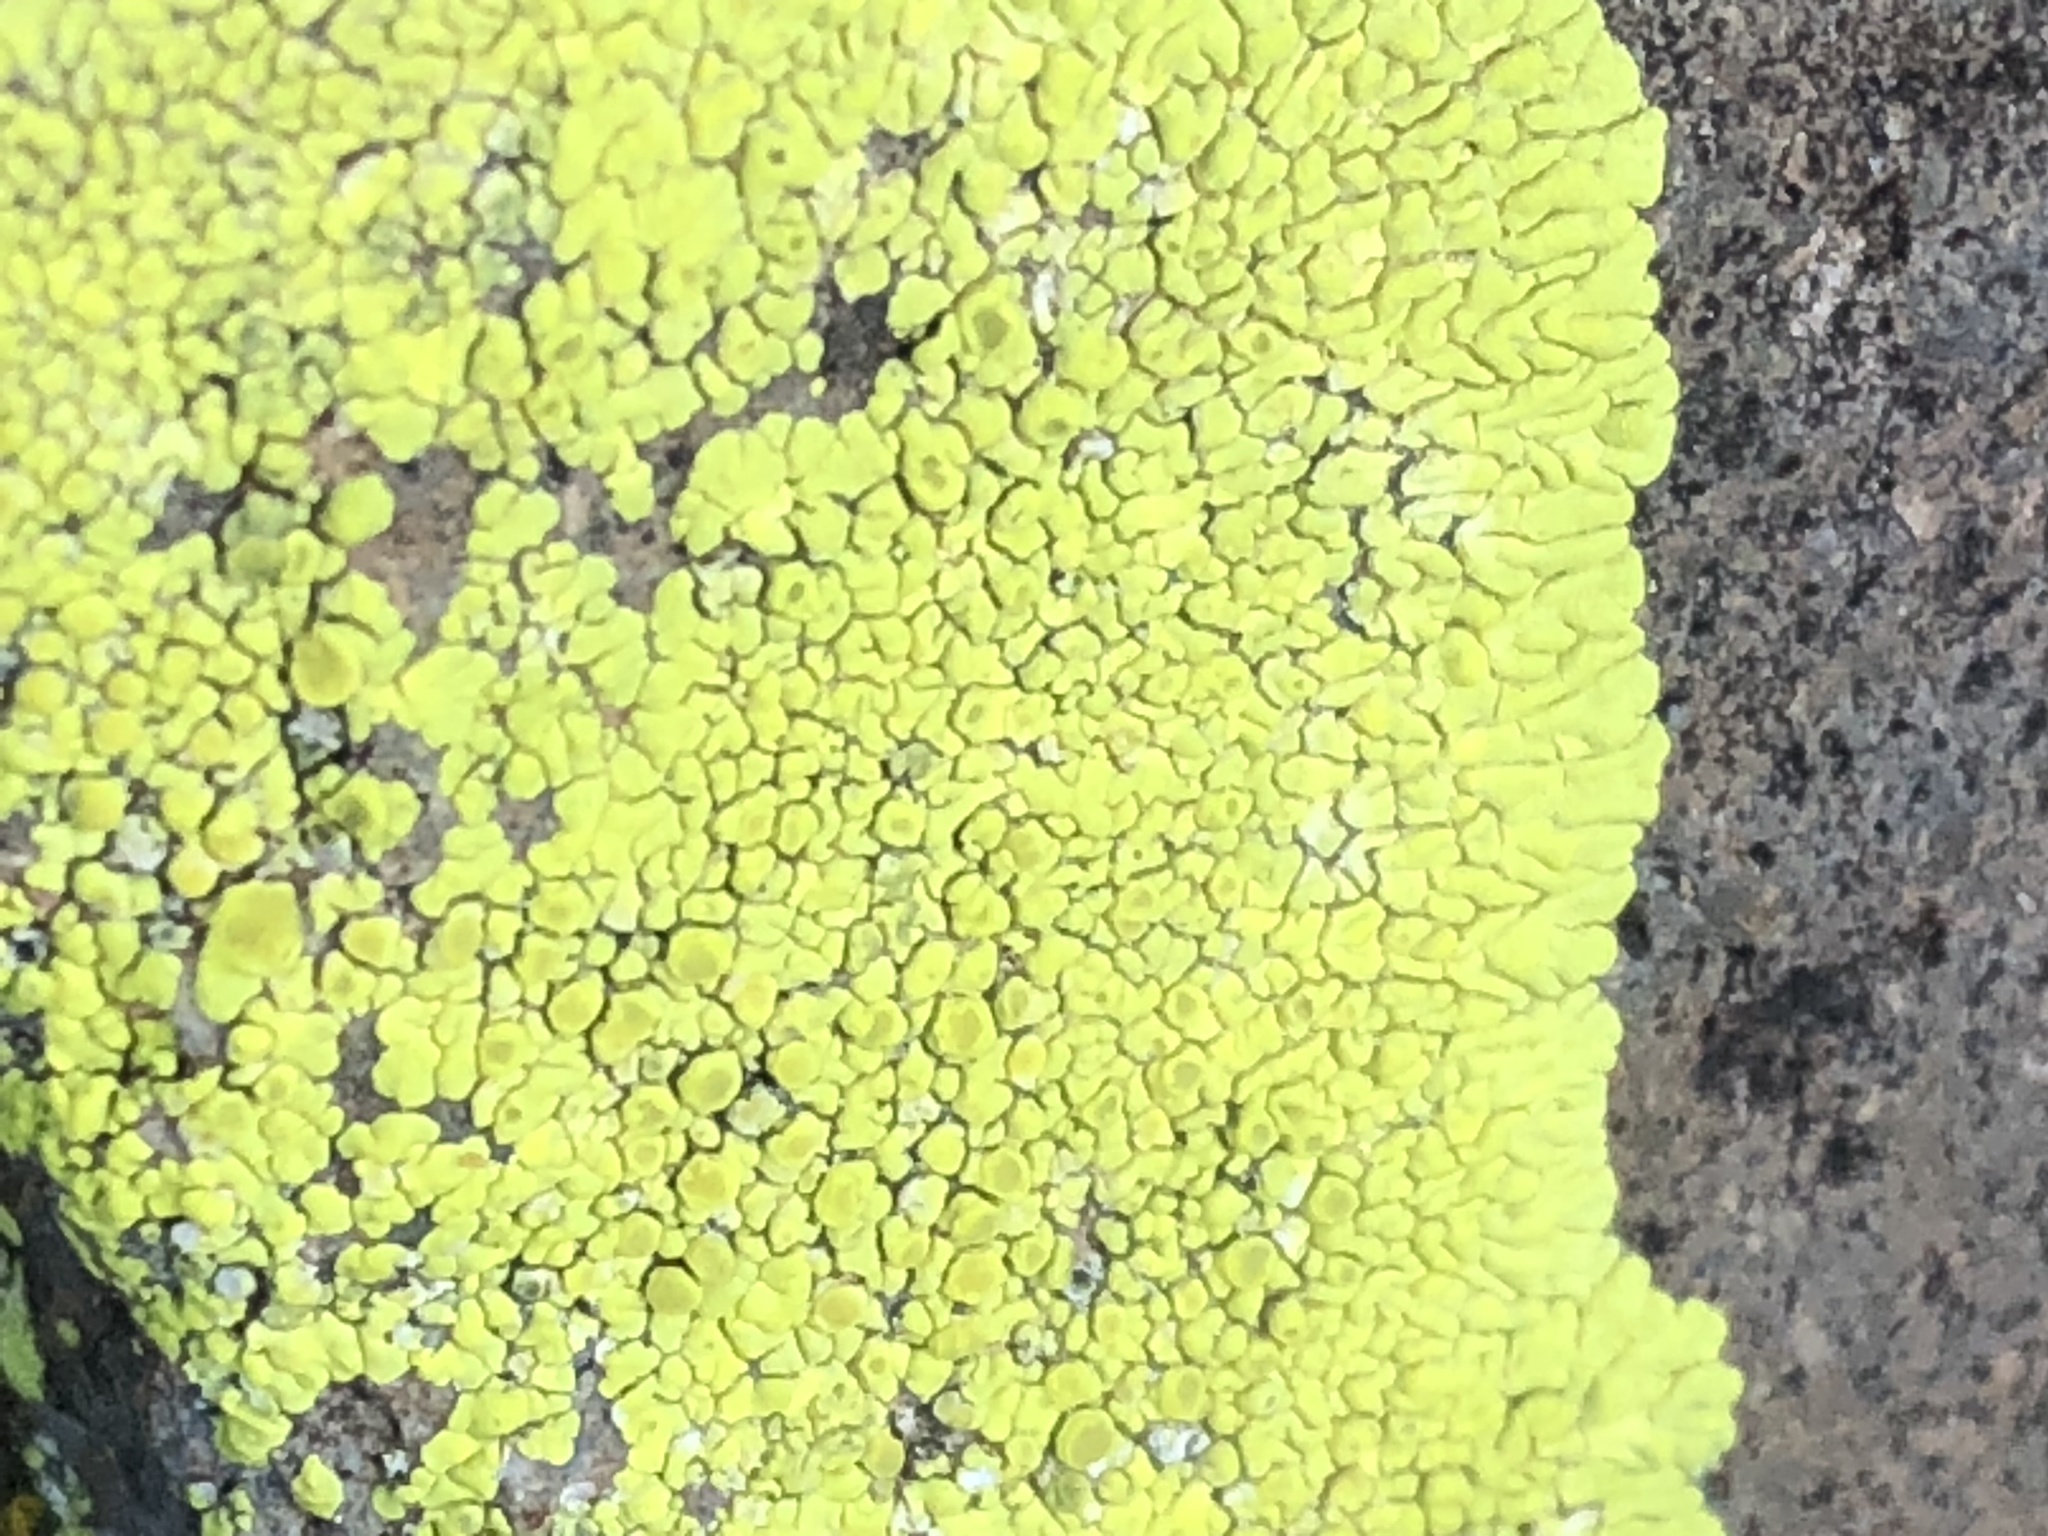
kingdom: Fungi
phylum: Ascomycota
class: Lecanoromycetes
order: Acarosporales
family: Acarosporaceae
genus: Pleopsidium
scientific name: Pleopsidium oxytonum
